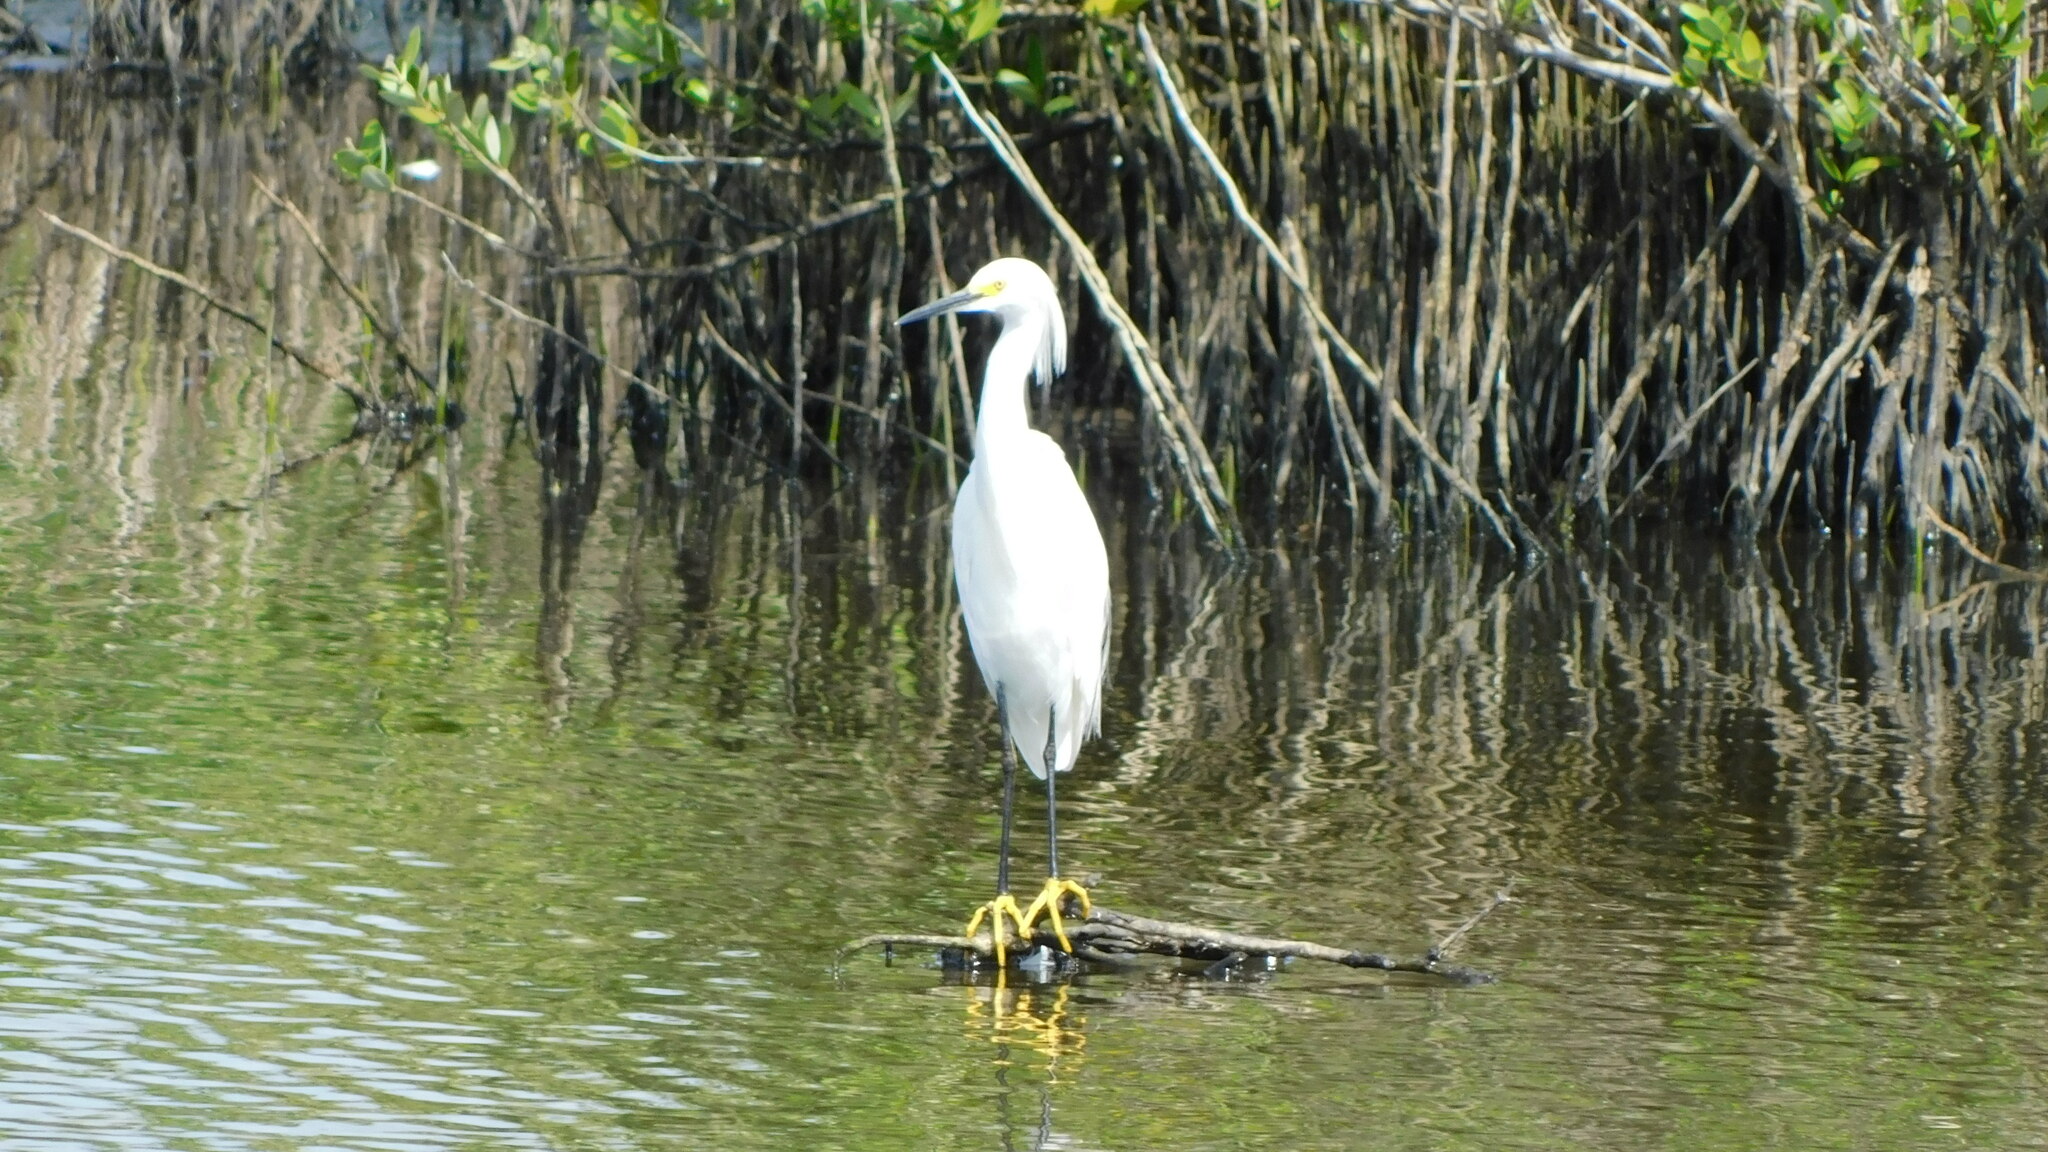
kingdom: Animalia
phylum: Chordata
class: Aves
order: Pelecaniformes
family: Ardeidae
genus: Egretta
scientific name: Egretta thula
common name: Snowy egret
